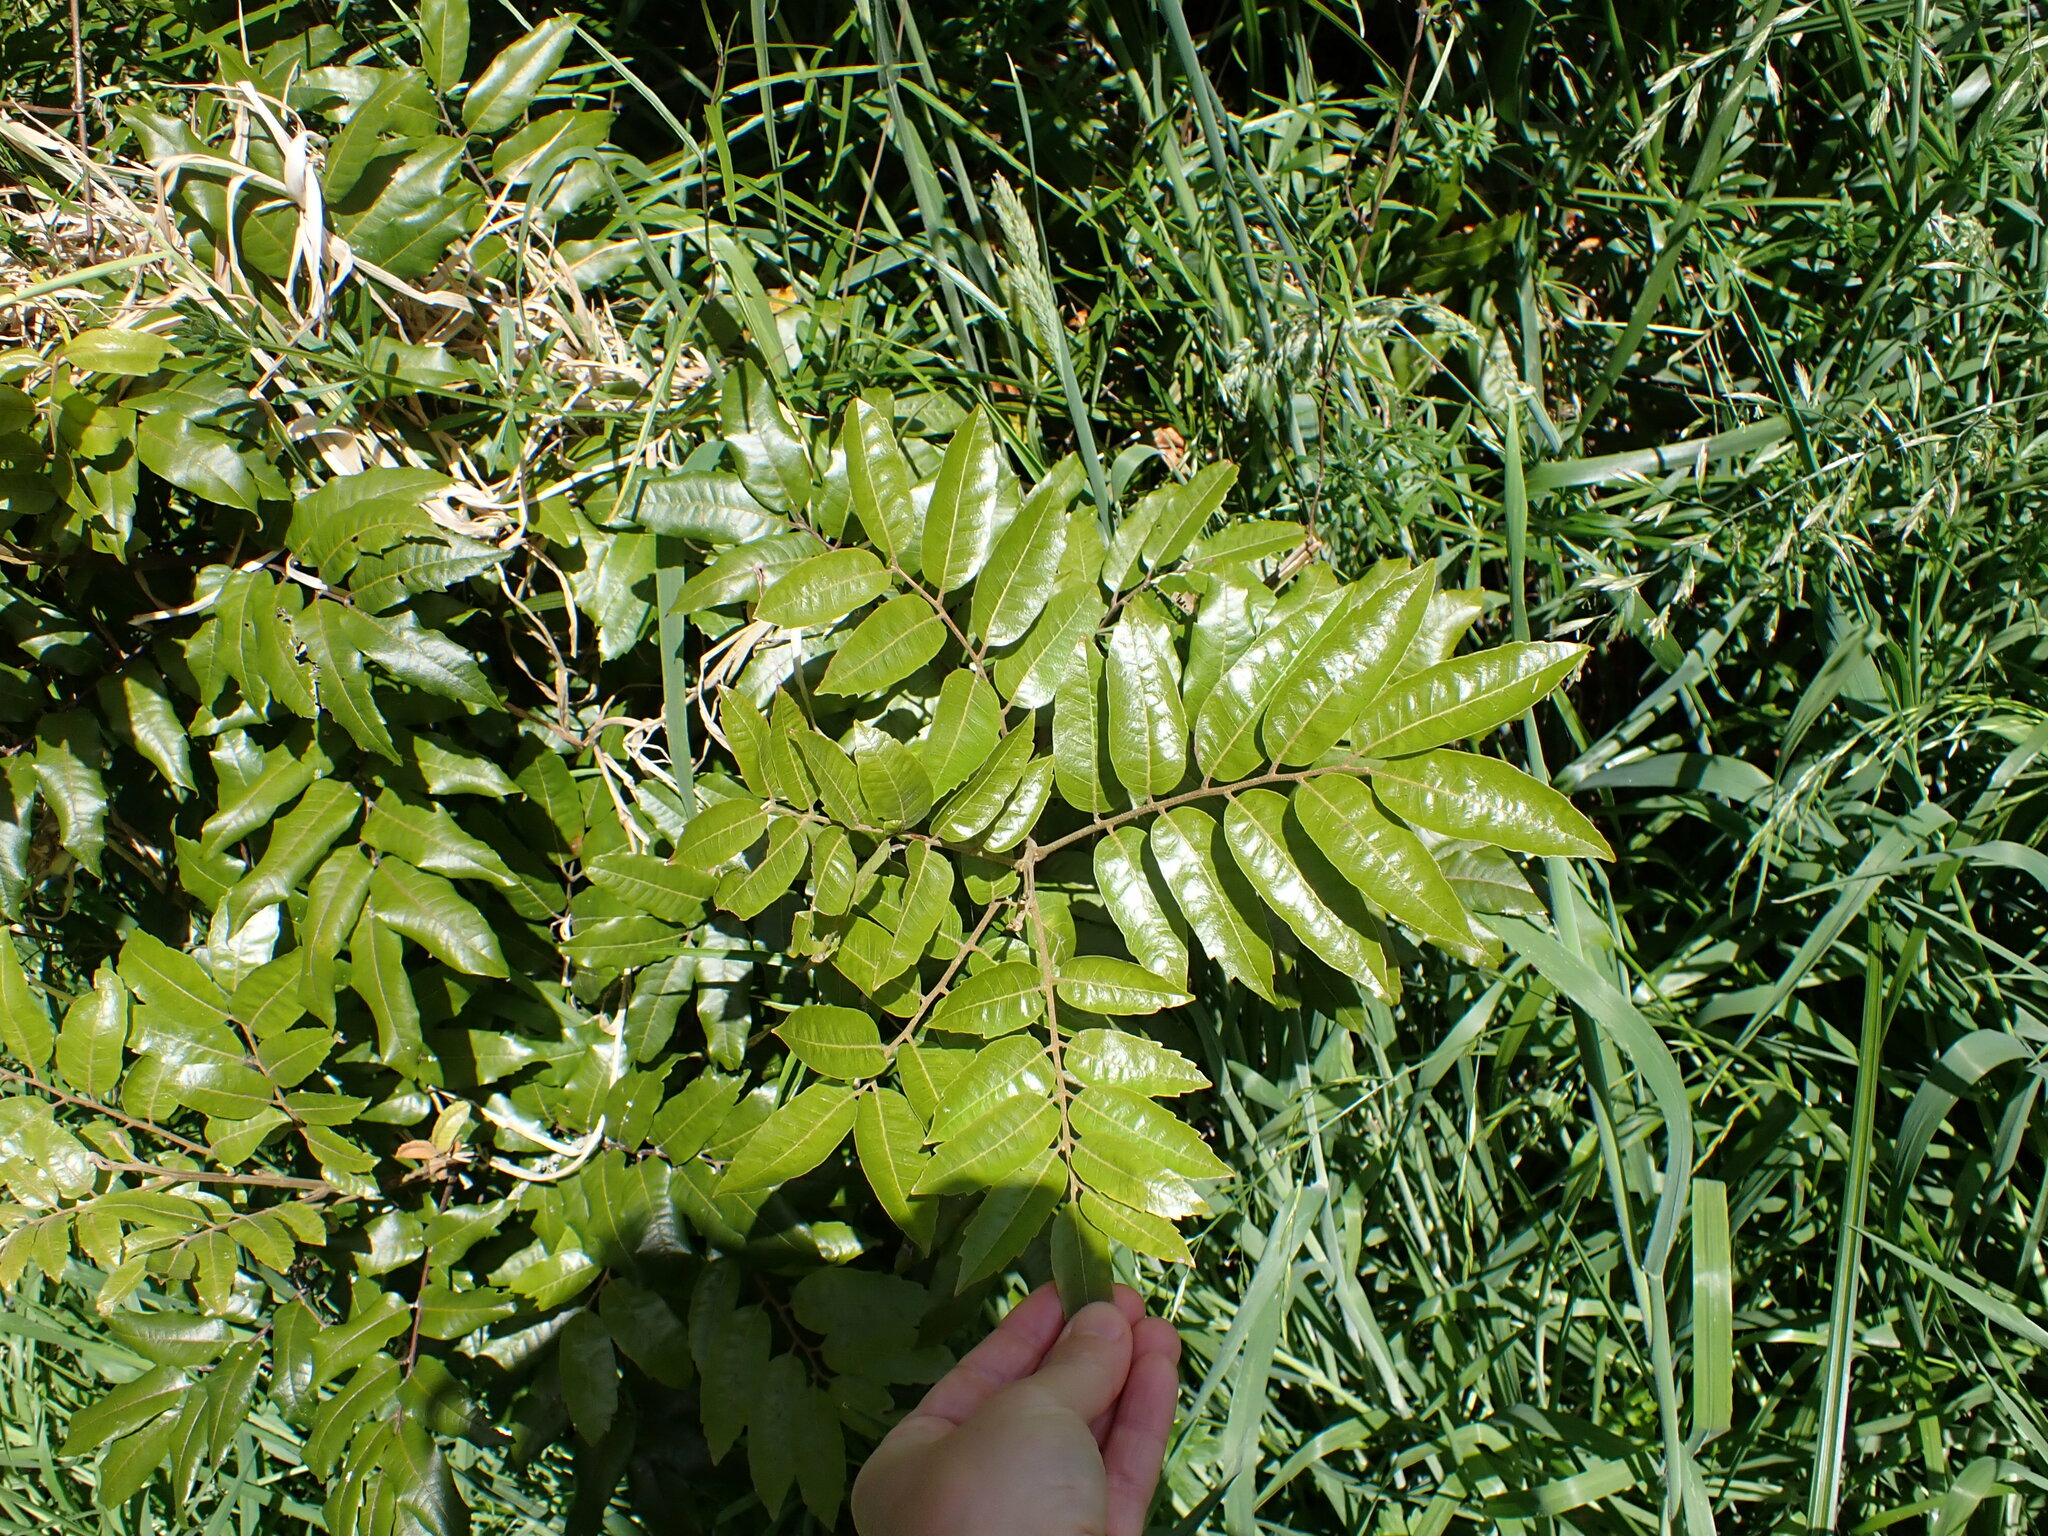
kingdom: Plantae
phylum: Tracheophyta
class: Magnoliopsida
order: Sapindales
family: Sapindaceae
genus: Alectryon
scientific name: Alectryon excelsus
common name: Three kings titoki
